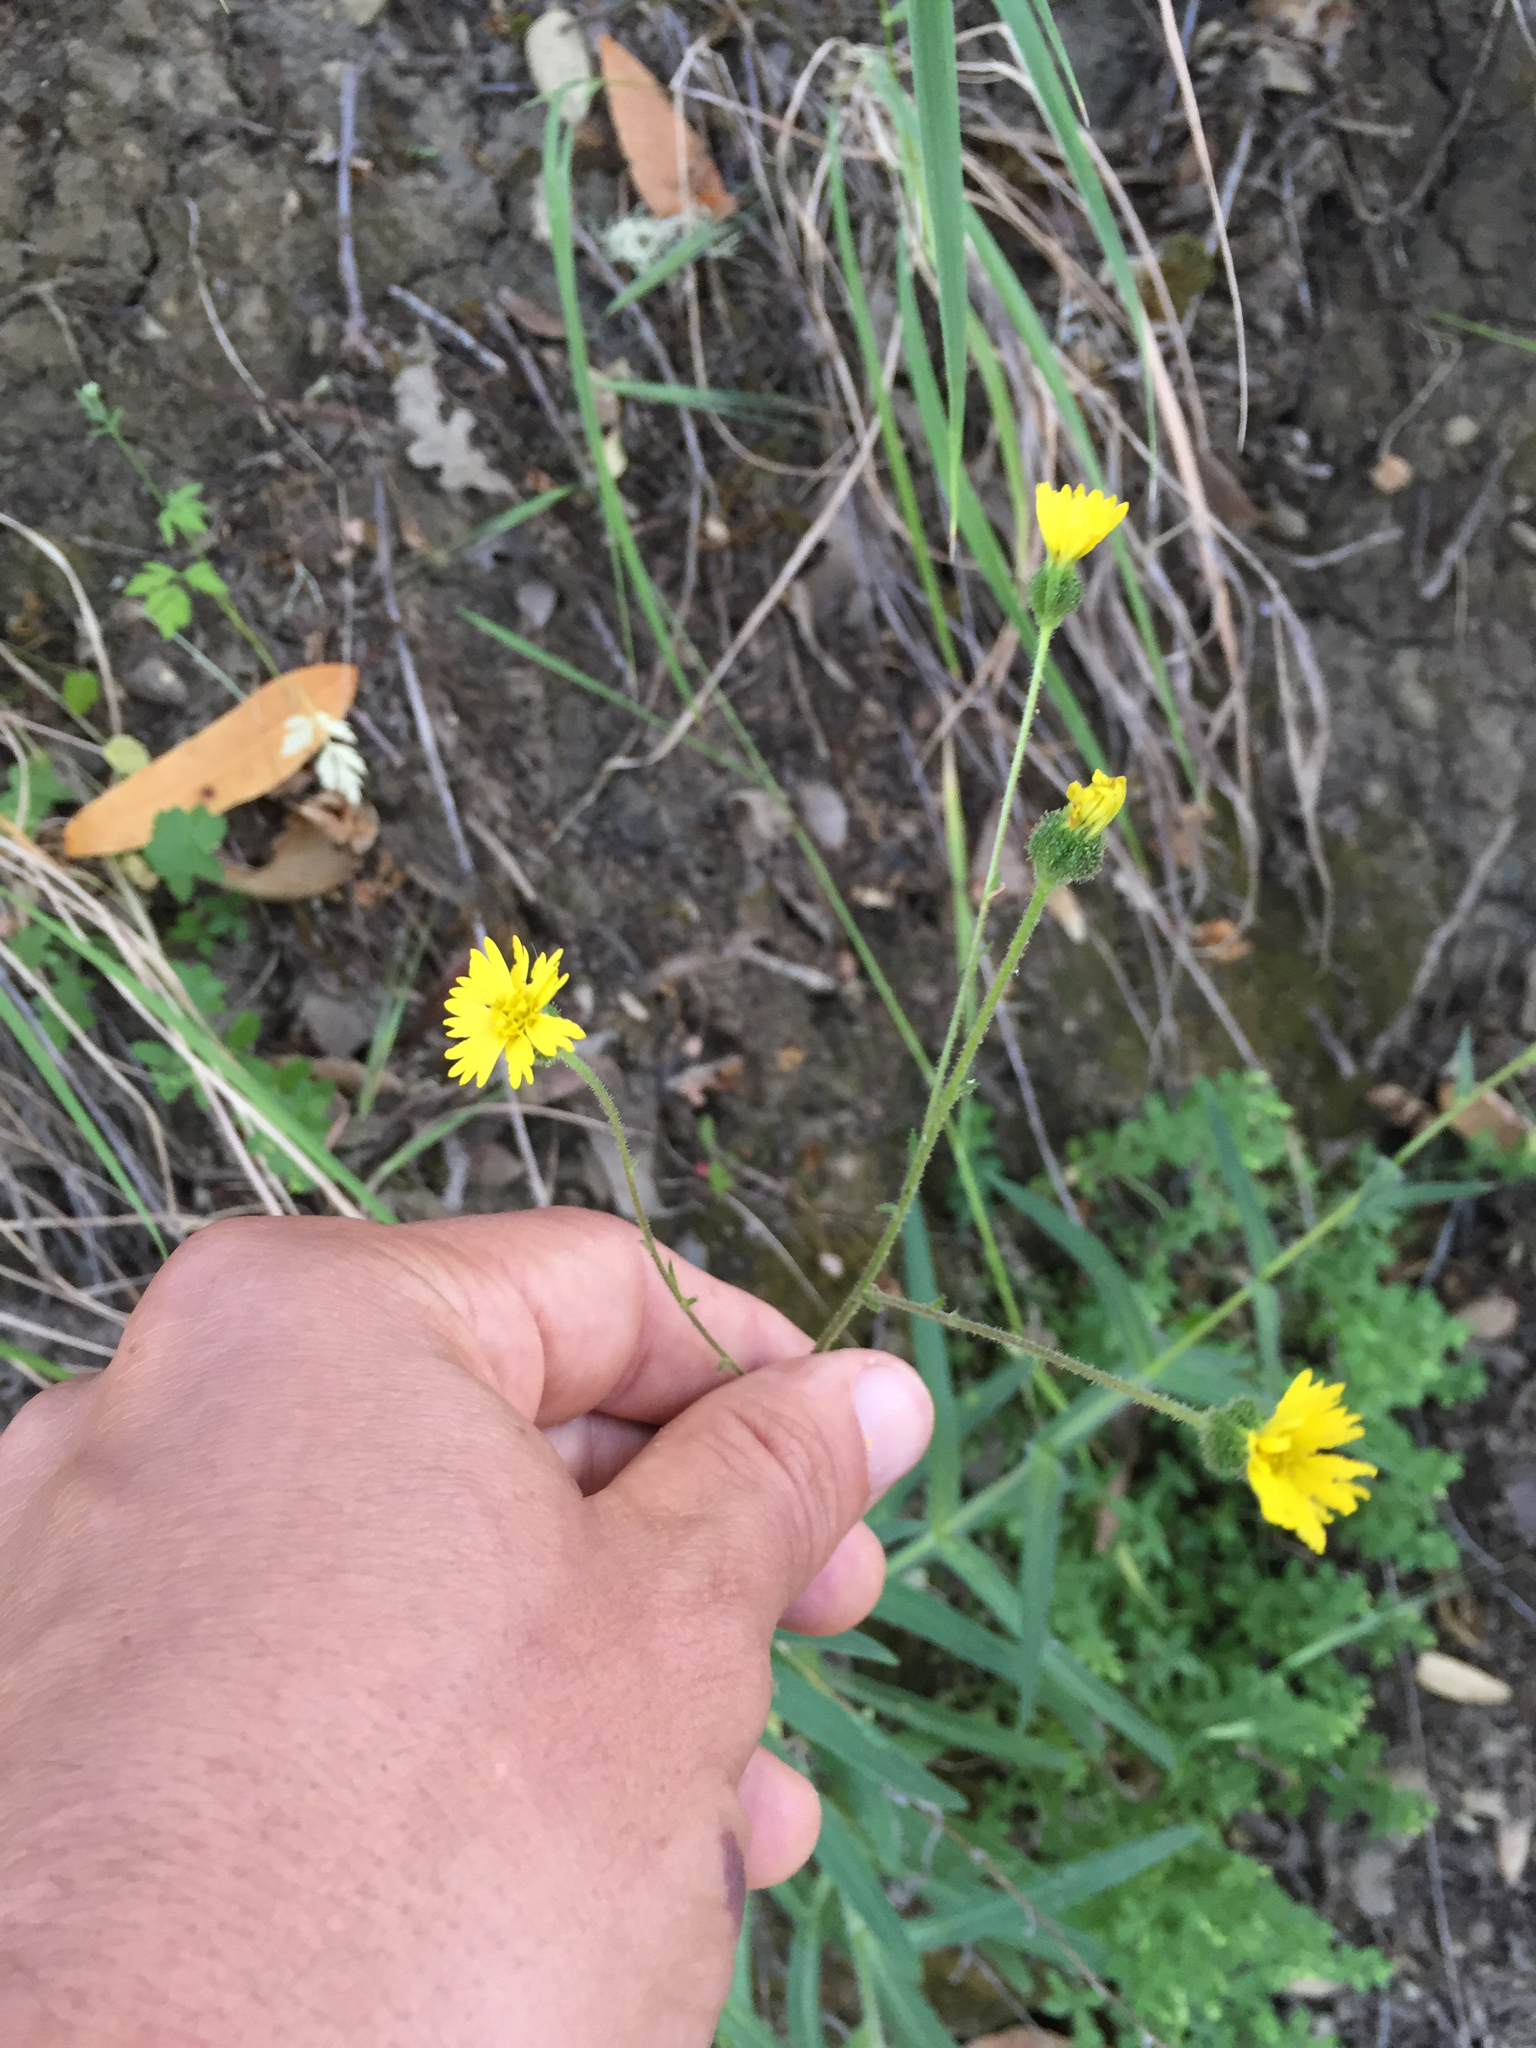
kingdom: Plantae
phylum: Tracheophyta
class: Magnoliopsida
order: Asterales
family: Asteraceae
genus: Anisocarpus
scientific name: Anisocarpus madioides
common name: Woodland madia
